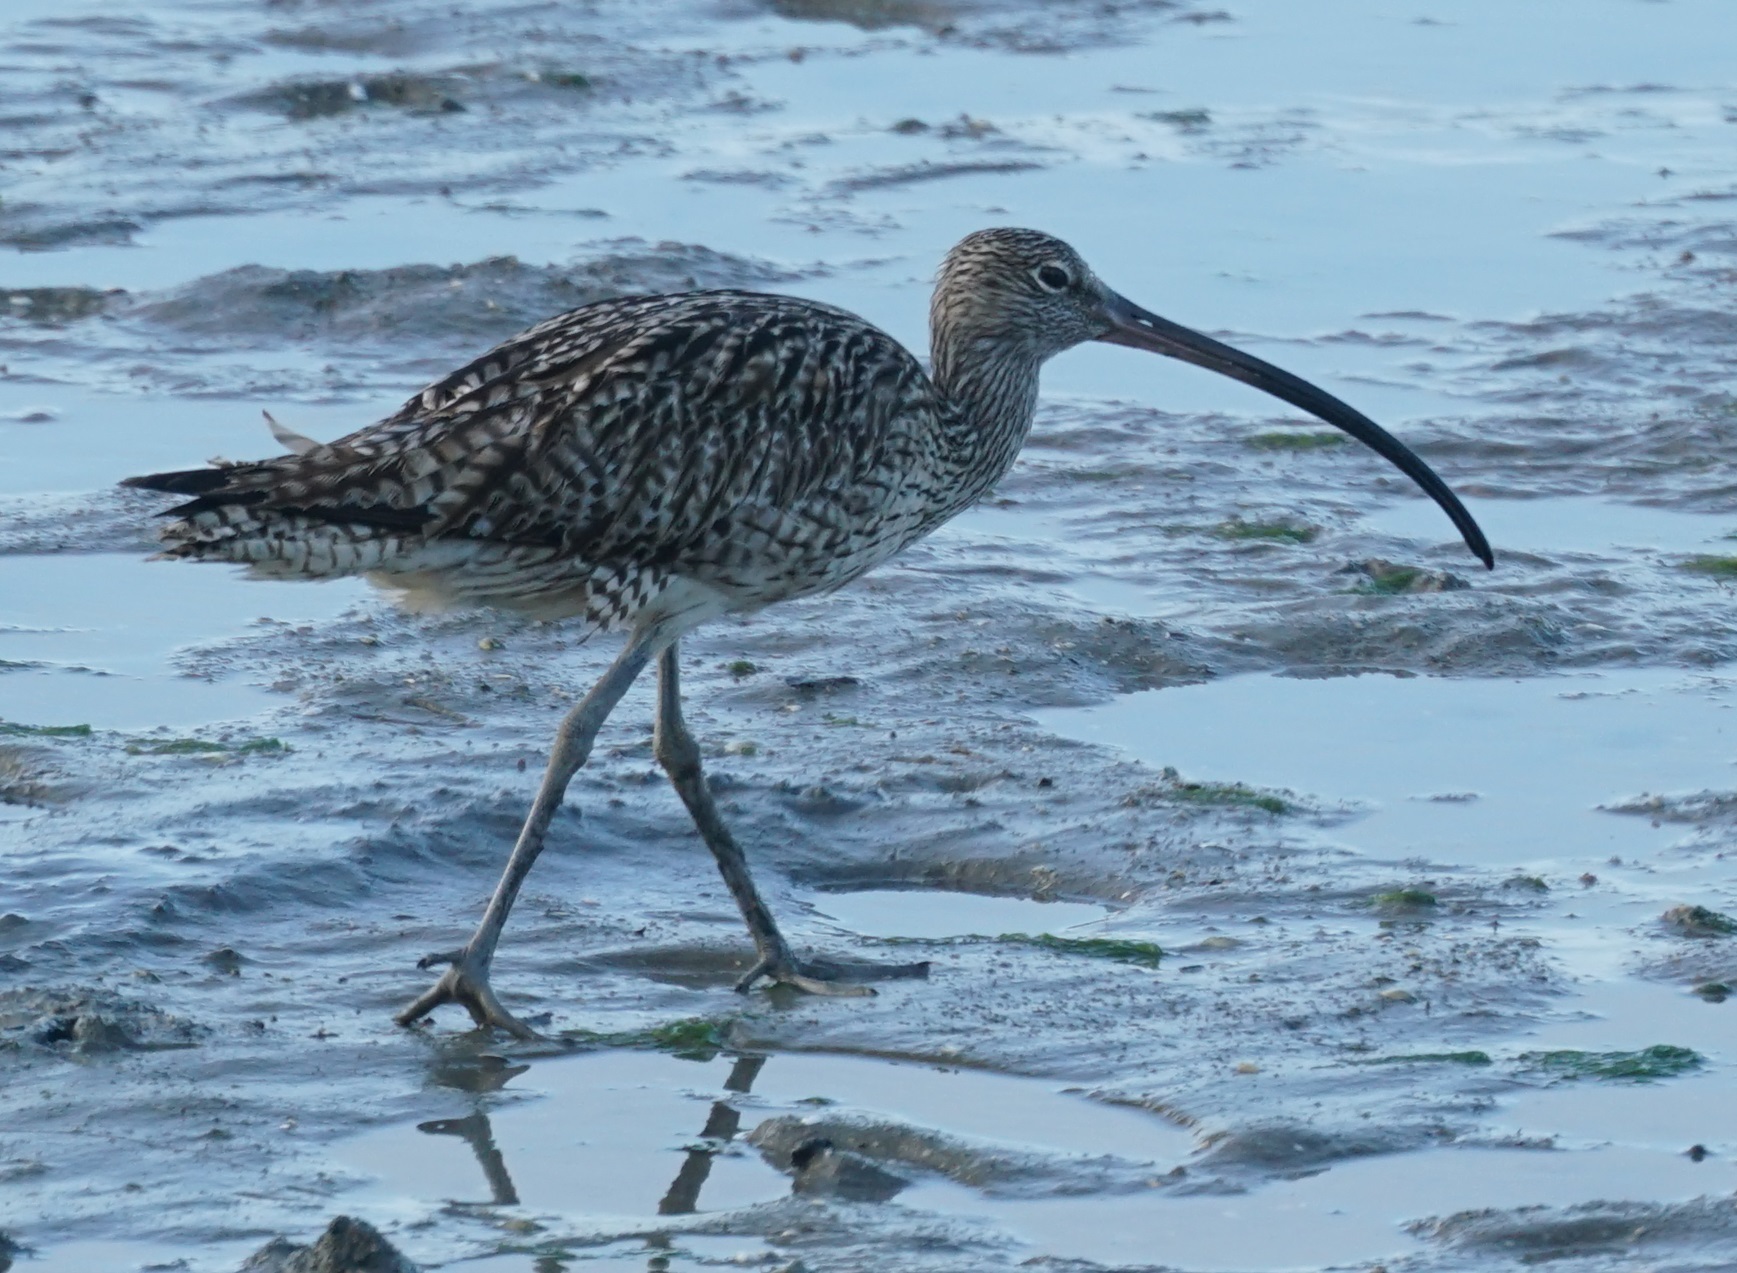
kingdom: Animalia
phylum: Chordata
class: Aves
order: Charadriiformes
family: Scolopacidae
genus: Numenius
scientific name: Numenius madagascariensis
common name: Far eastern curlew
